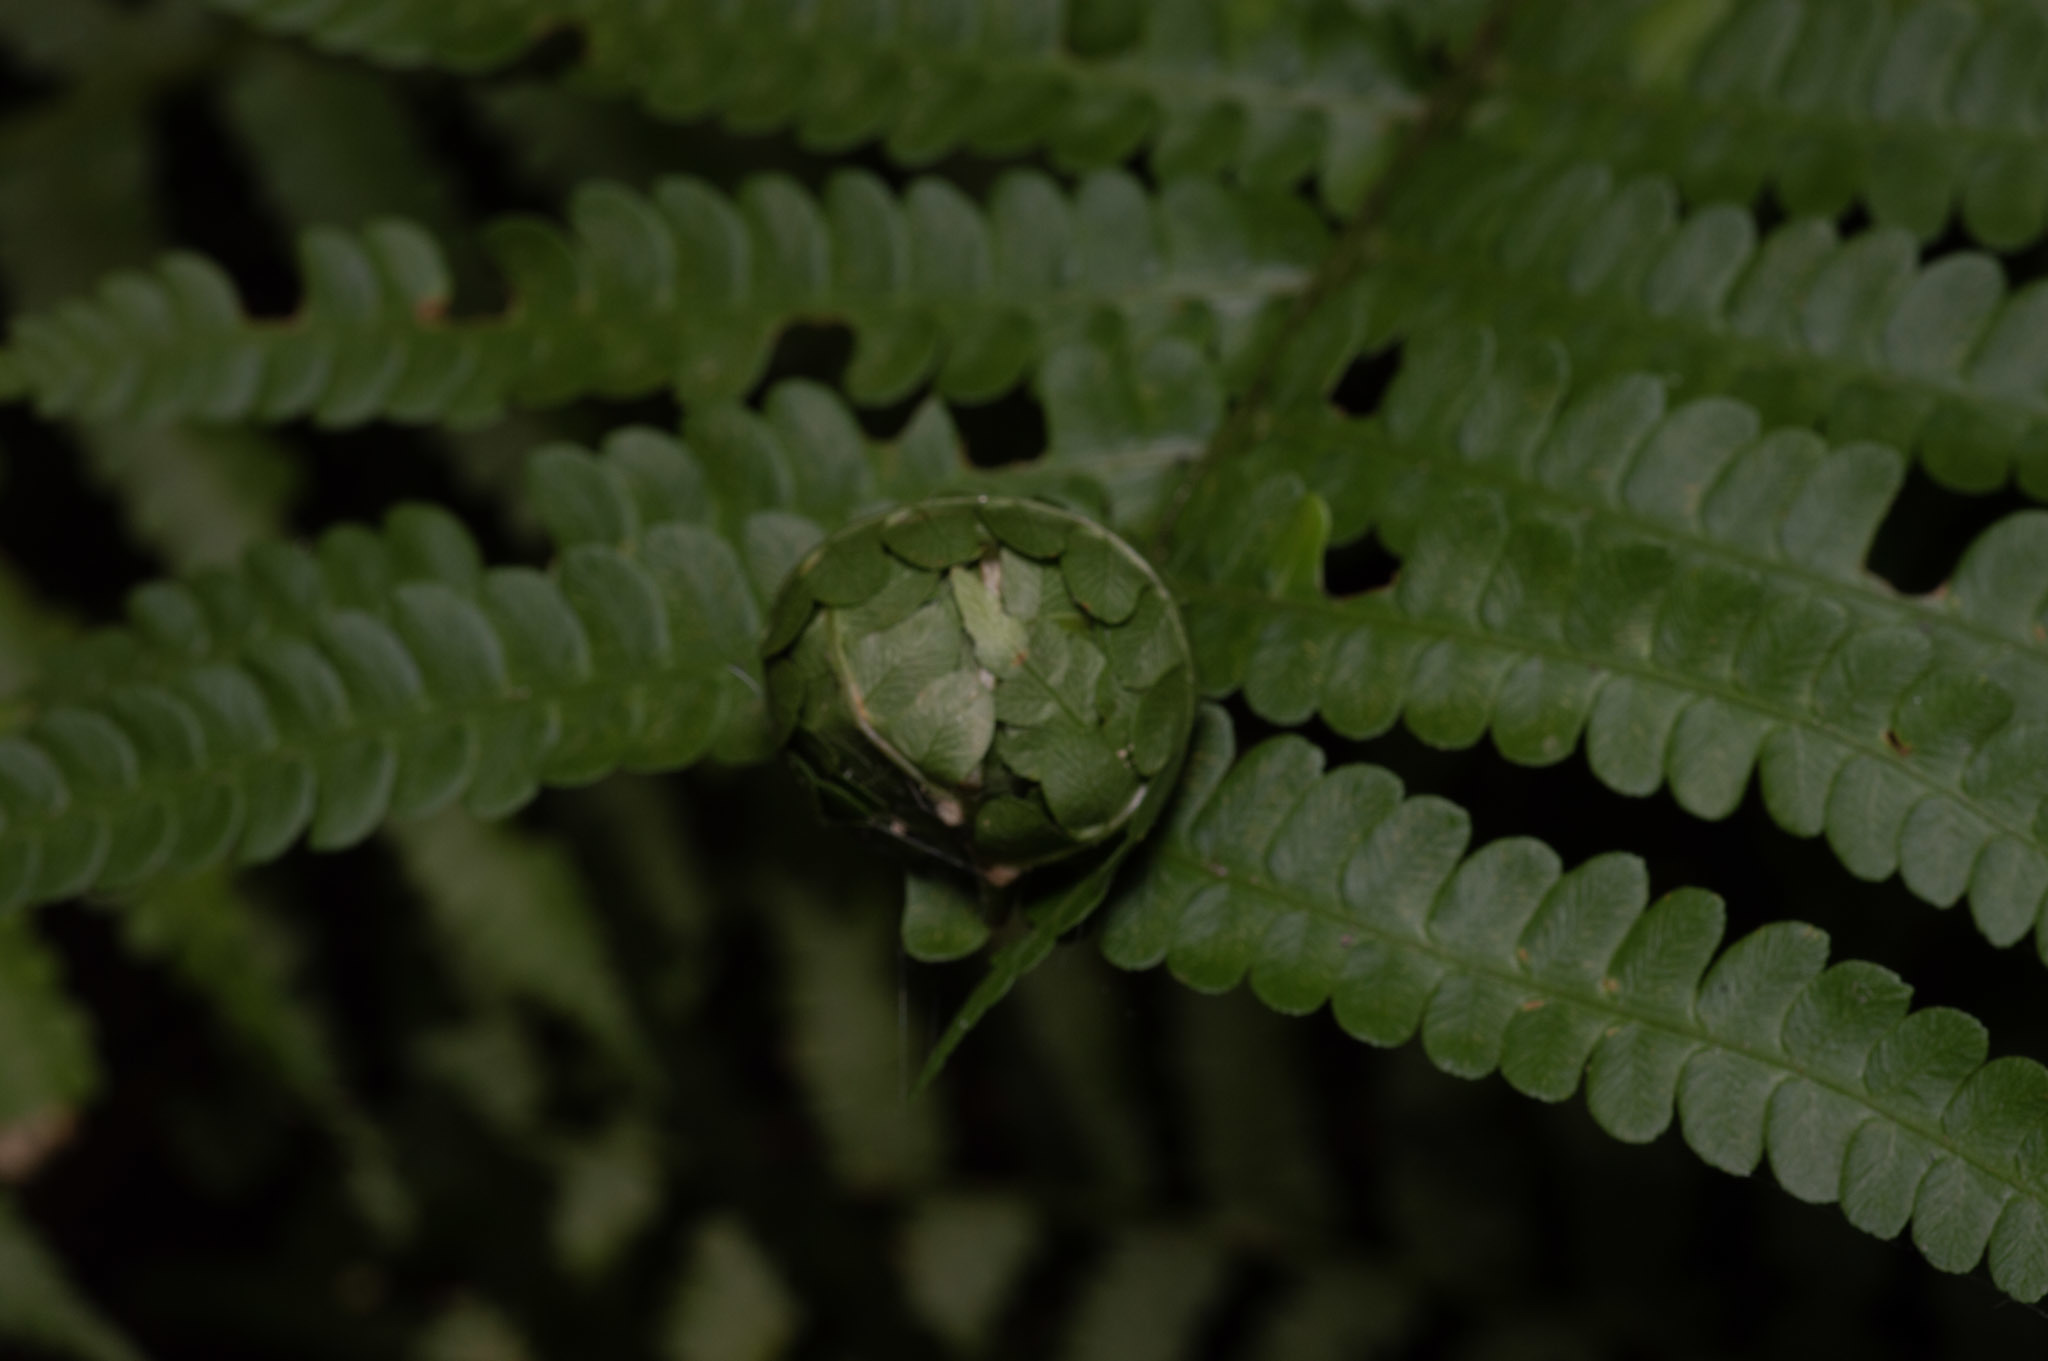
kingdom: Animalia
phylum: Arthropoda
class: Insecta
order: Lepidoptera
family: Crambidae
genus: Herpetogramma
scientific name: Herpetogramma theseusalis
